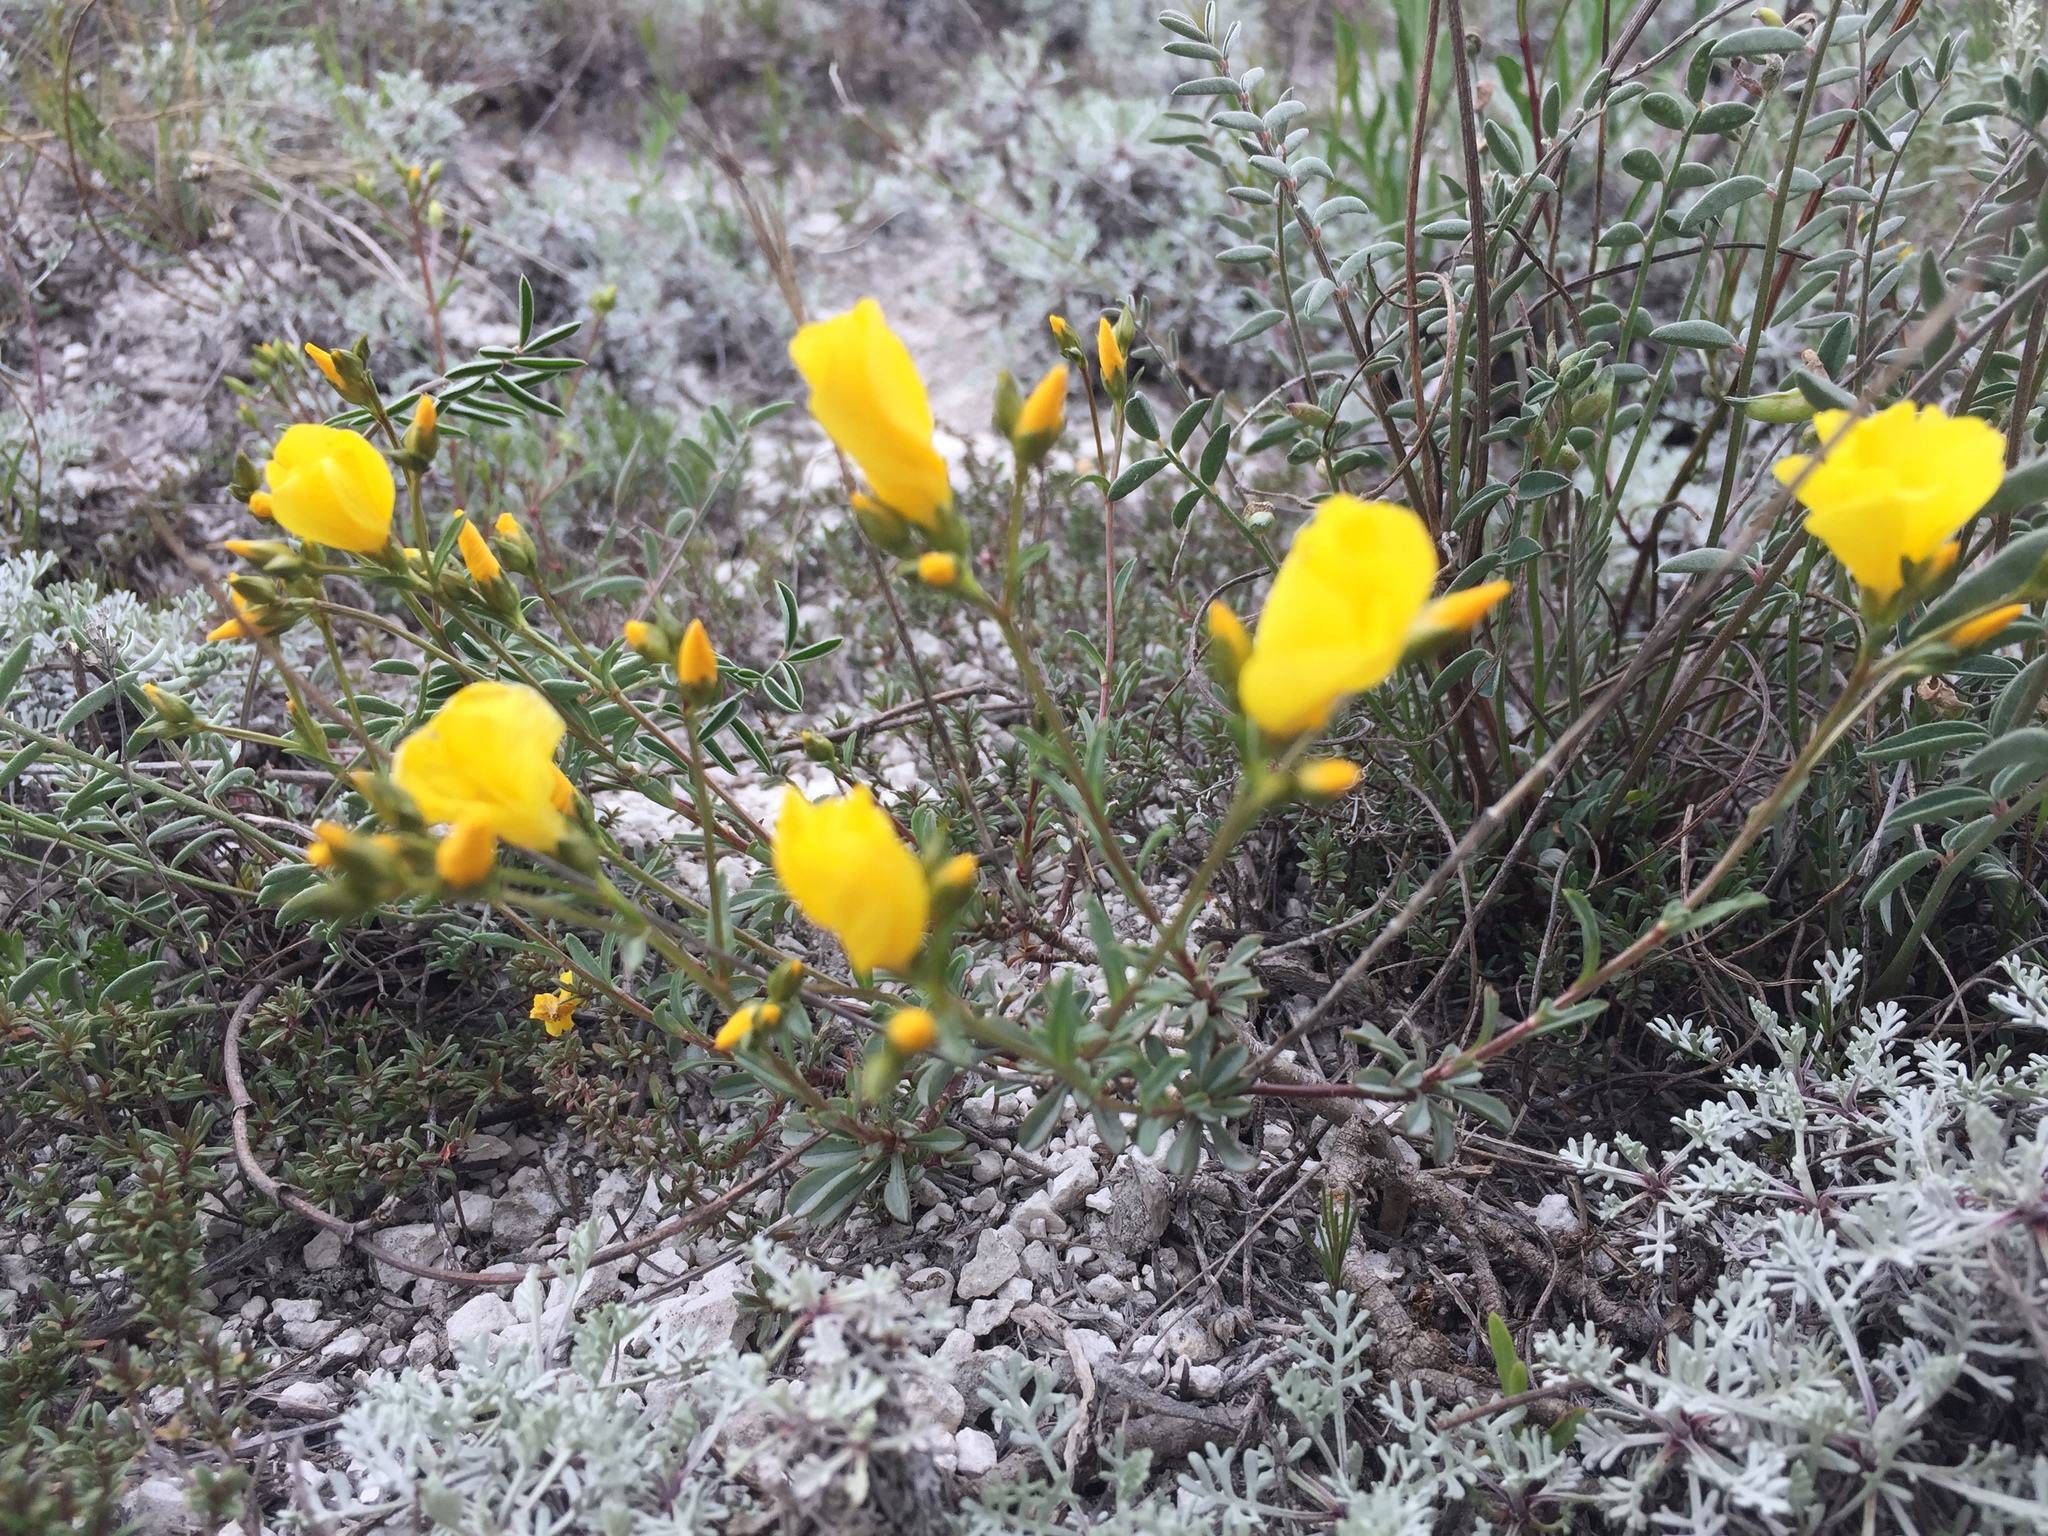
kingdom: Plantae
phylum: Tracheophyta
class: Magnoliopsida
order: Malpighiales
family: Linaceae
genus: Linum
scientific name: Linum ucranicum
